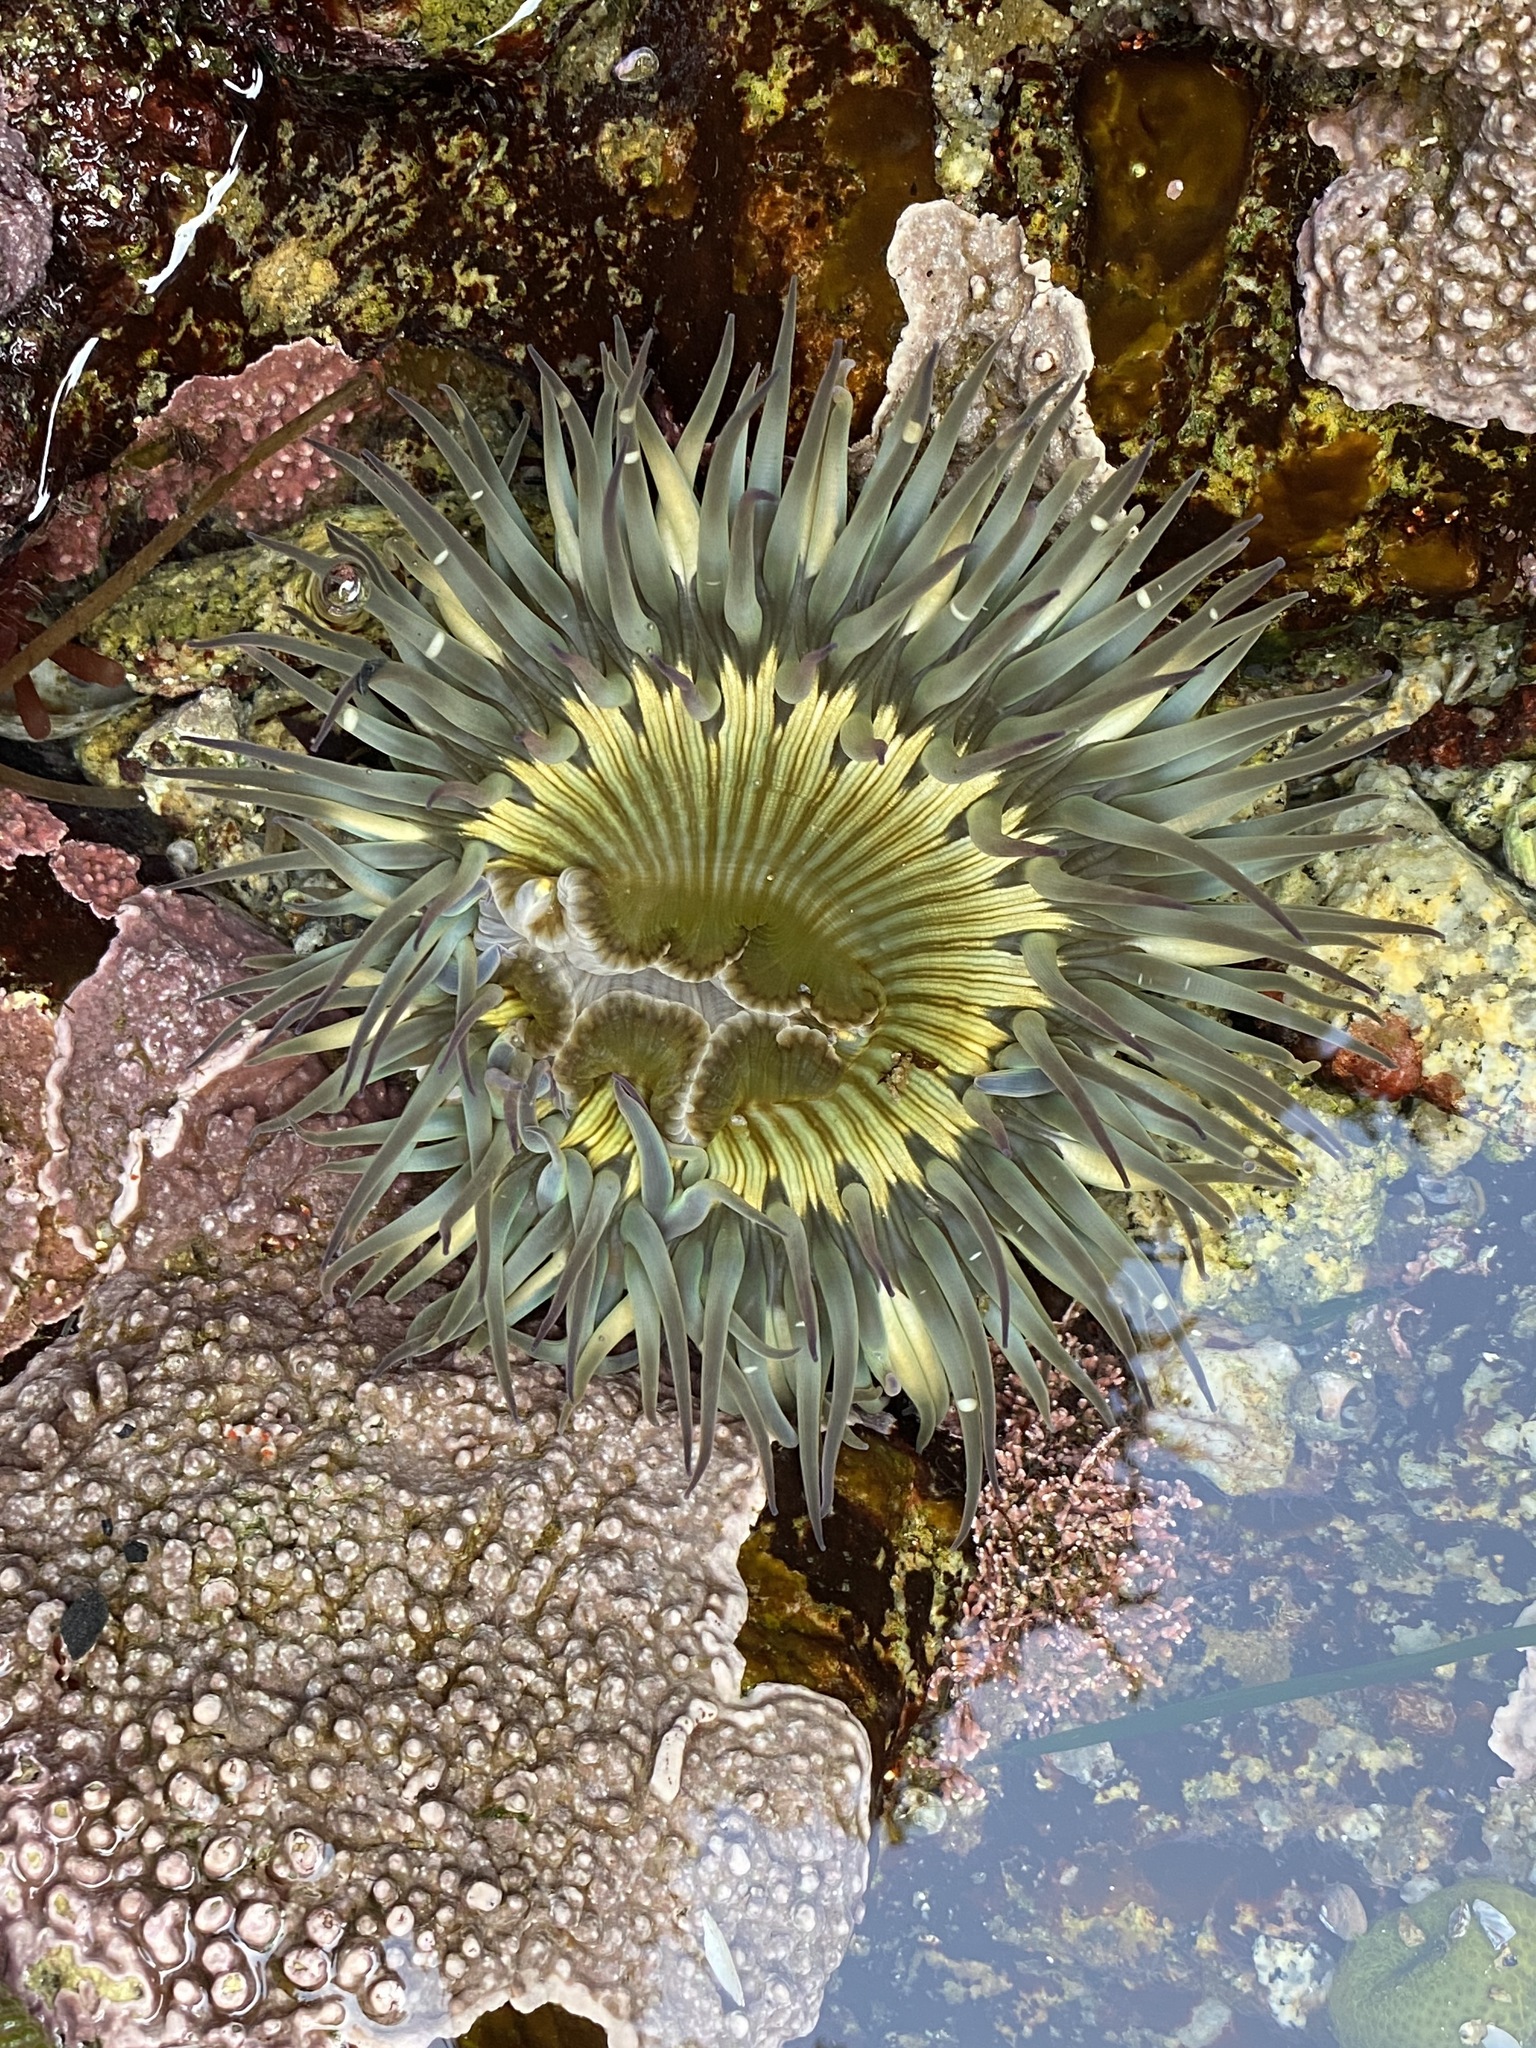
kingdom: Animalia
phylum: Cnidaria
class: Anthozoa
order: Actiniaria
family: Actiniidae
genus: Anthopleura
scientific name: Anthopleura sola
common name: Sun anemone
